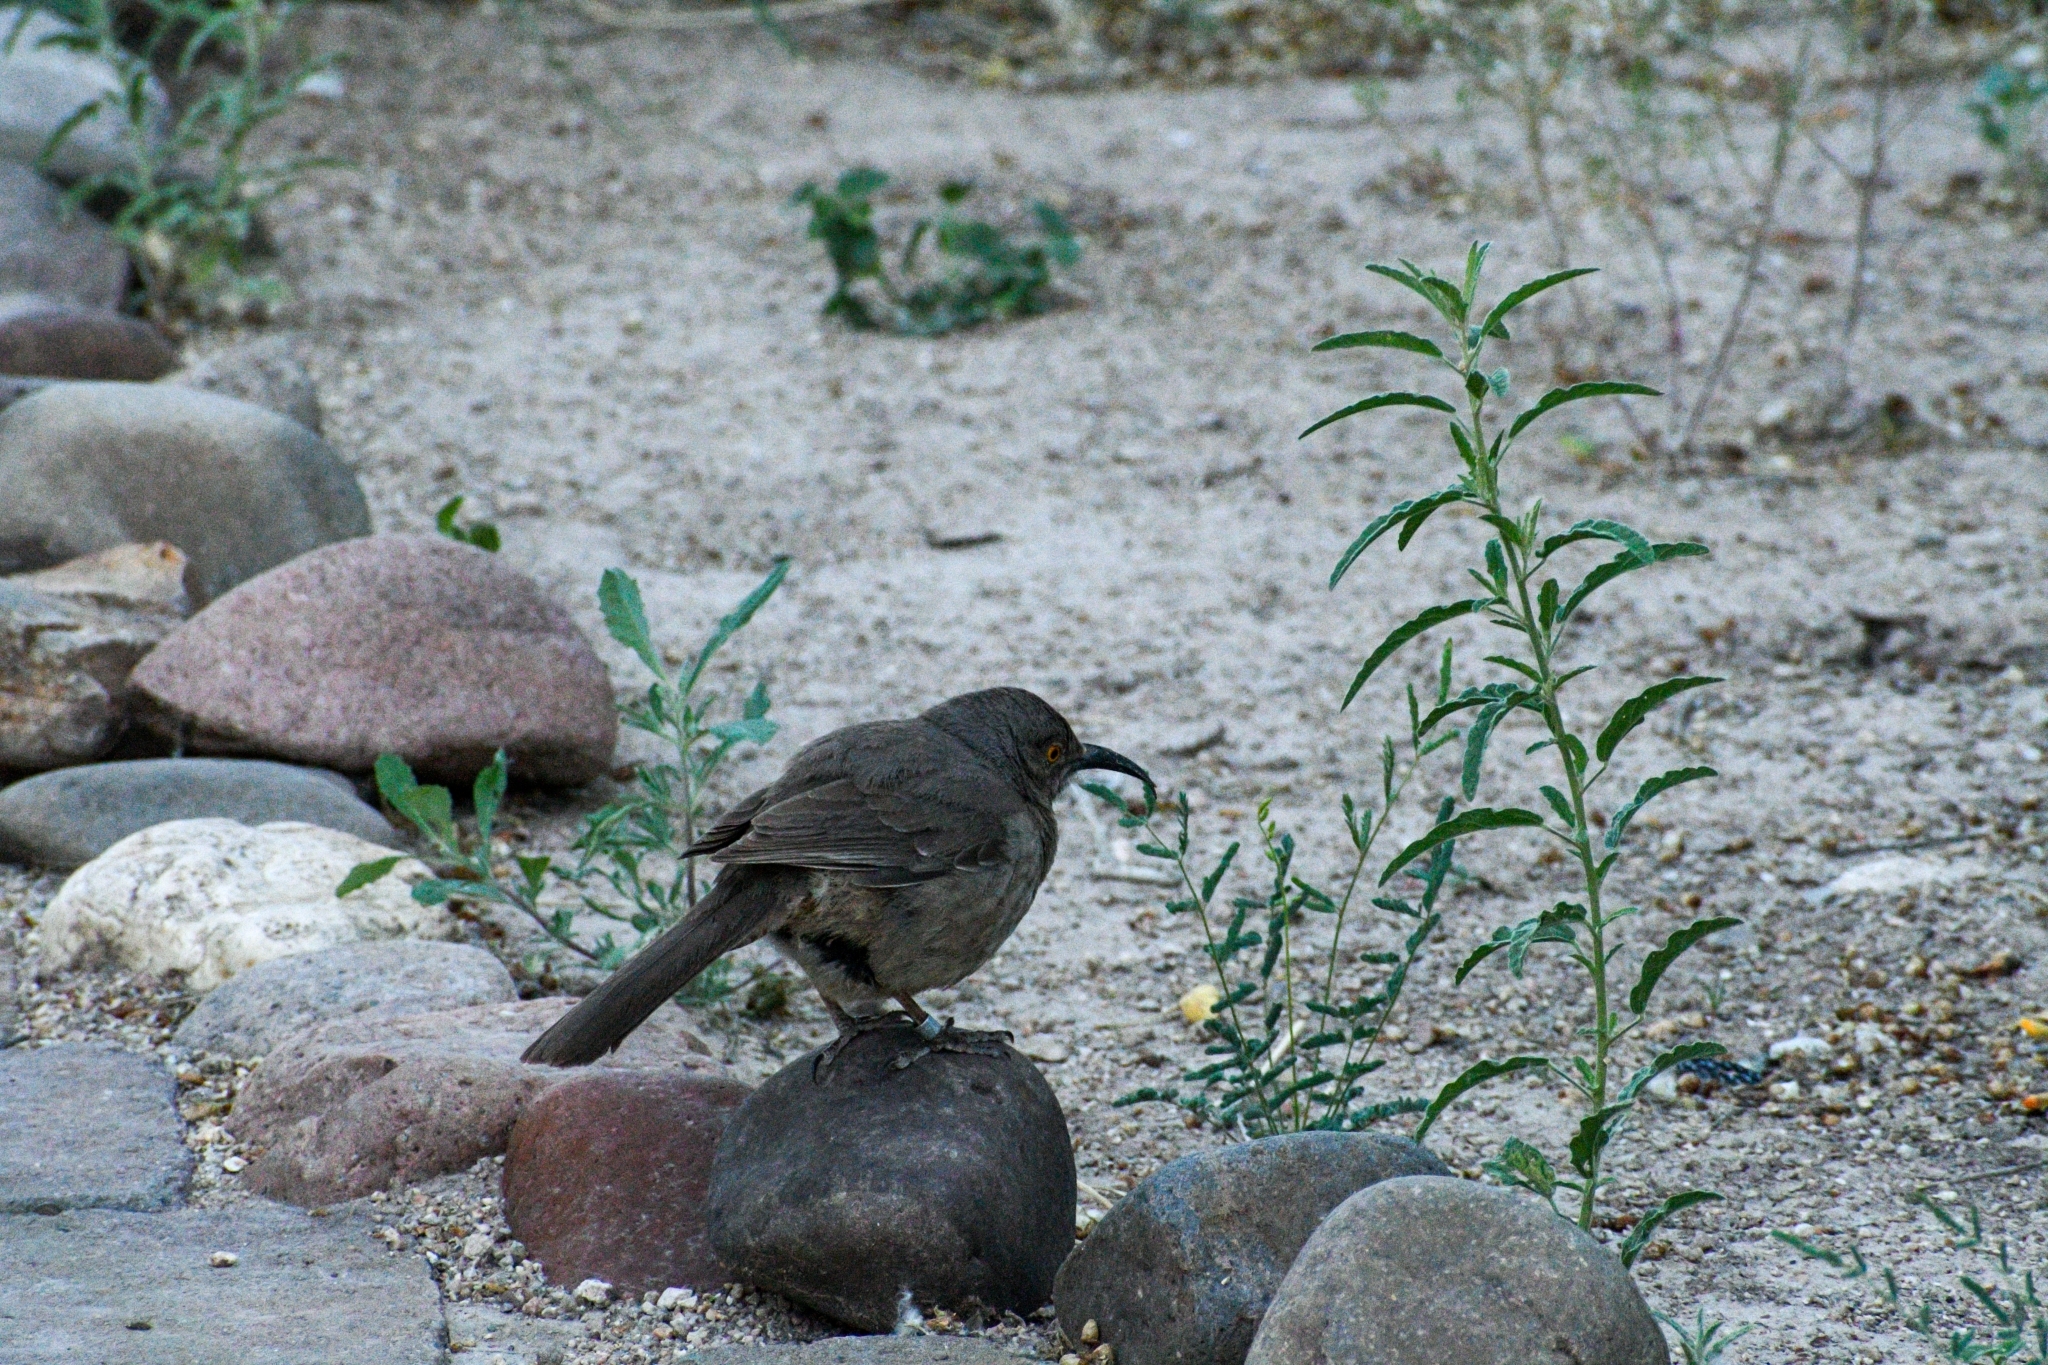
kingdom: Animalia
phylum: Chordata
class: Aves
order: Passeriformes
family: Mimidae
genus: Toxostoma
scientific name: Toxostoma curvirostre
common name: Curve-billed thrasher
